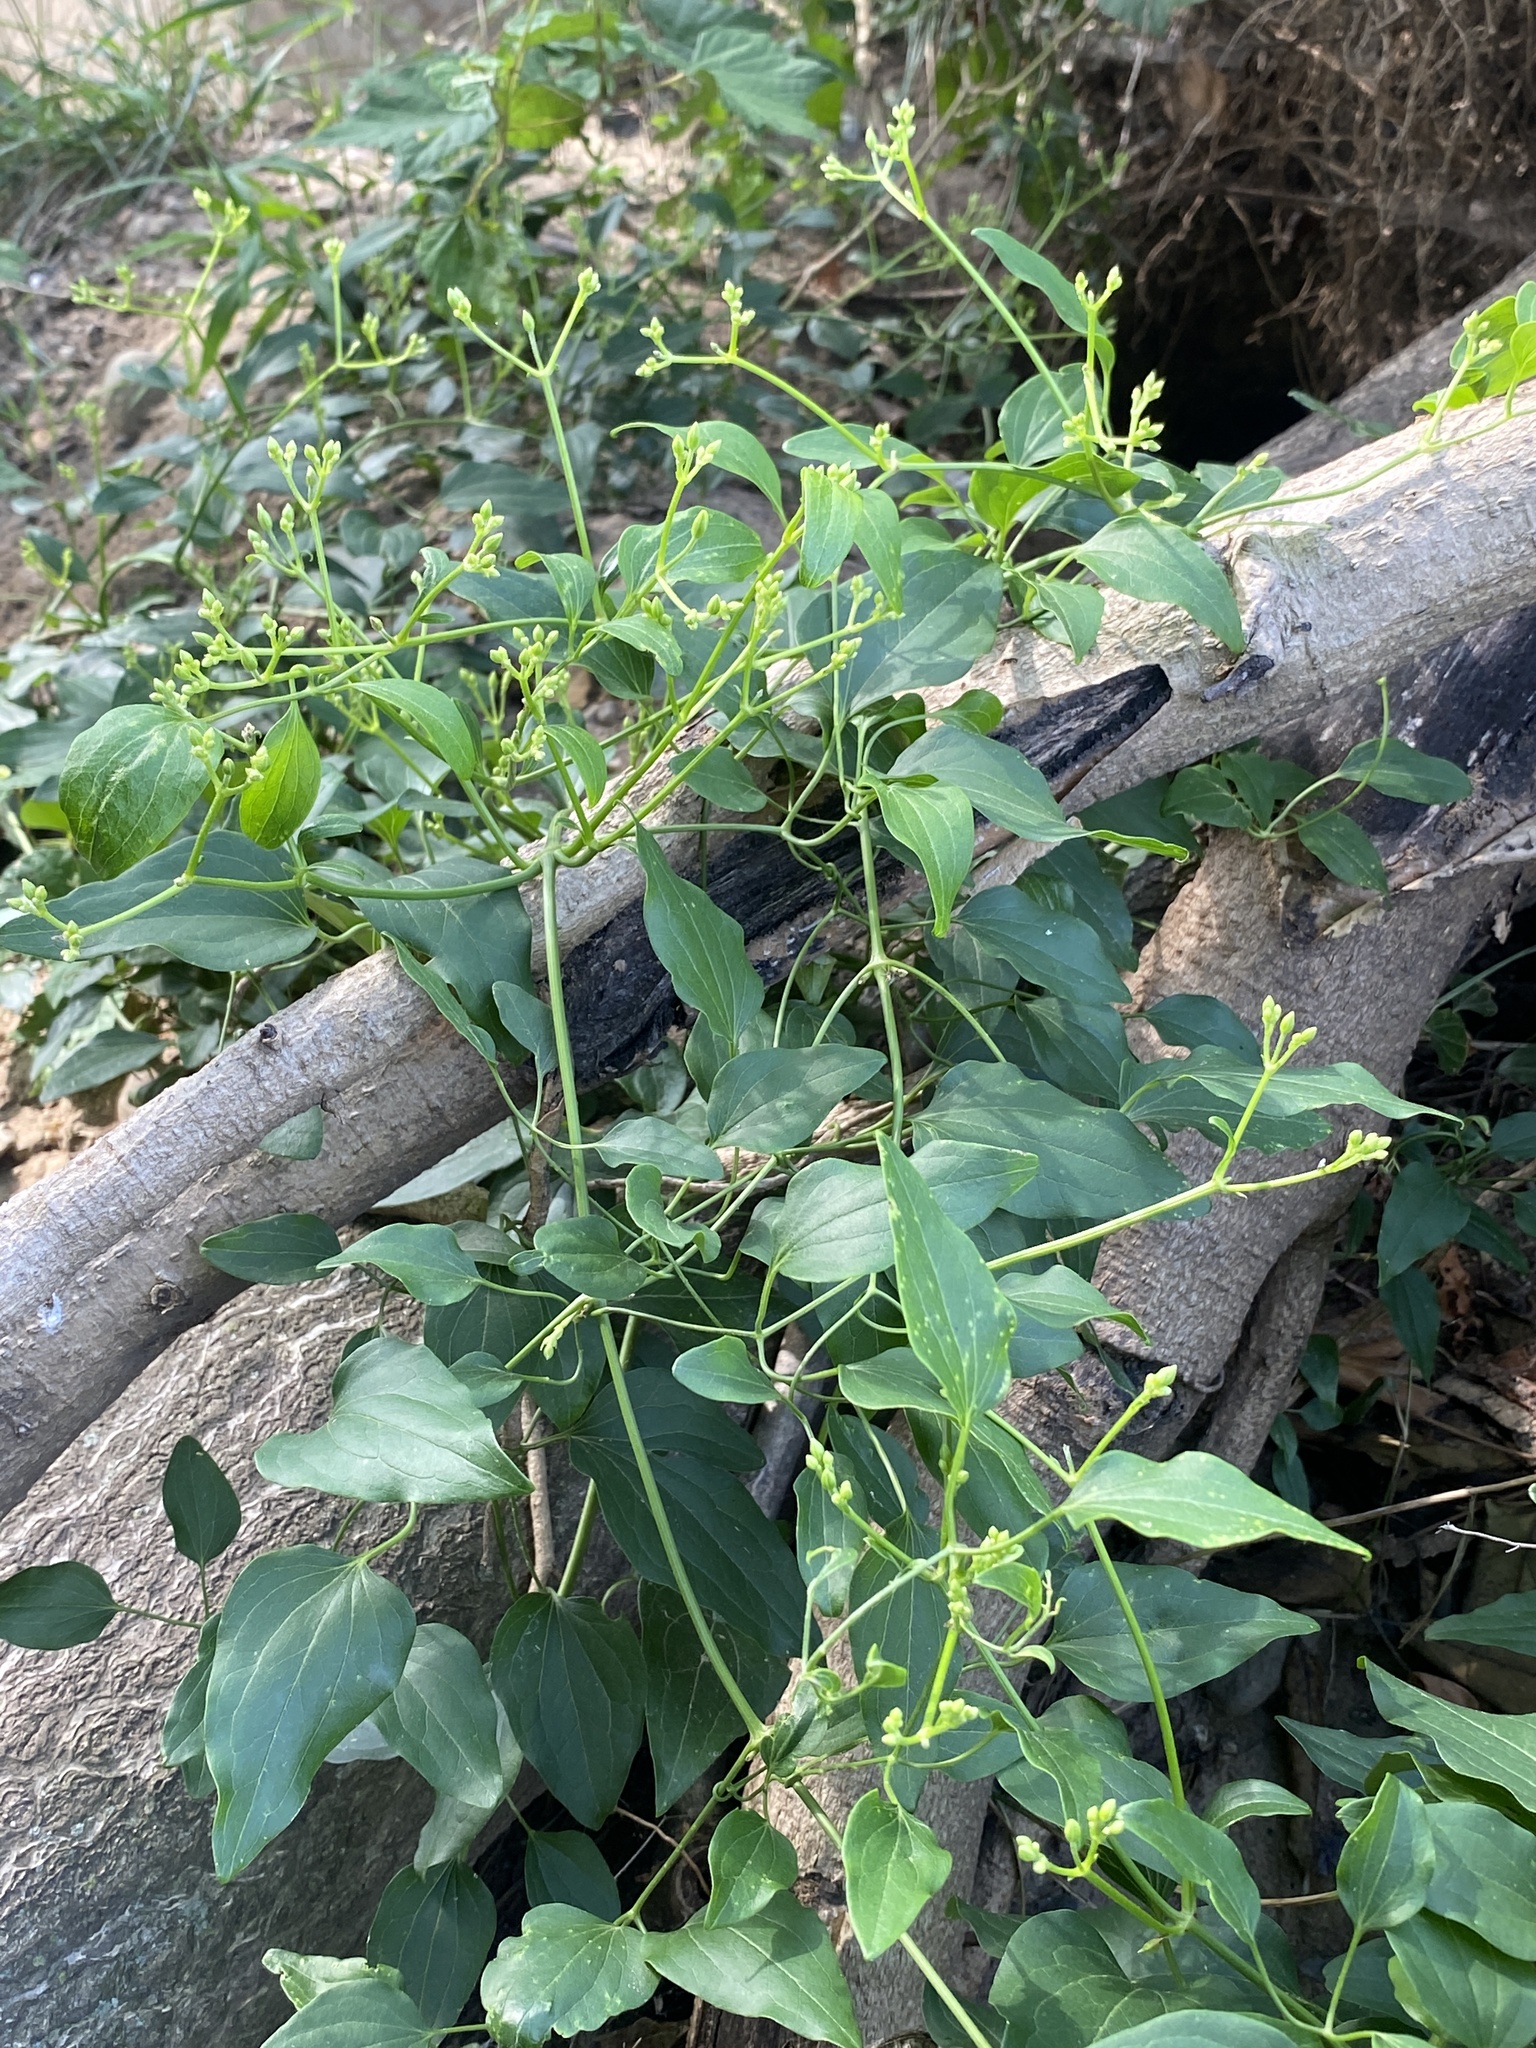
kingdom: Plantae
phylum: Tracheophyta
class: Magnoliopsida
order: Ranunculales
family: Ranunculaceae
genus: Clematis
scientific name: Clematis terniflora
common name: Sweet autumn clematis
